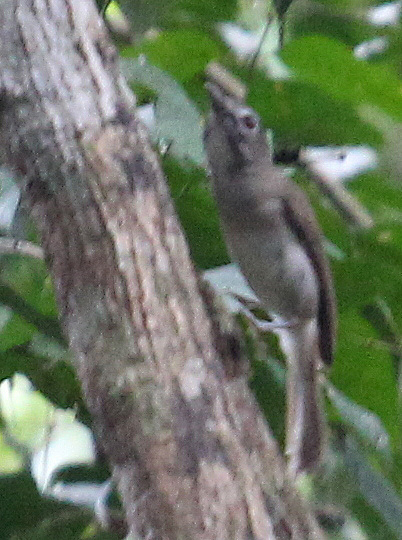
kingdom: Animalia
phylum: Chordata
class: Aves
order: Passeriformes
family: Pellorneidae
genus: Malacopteron
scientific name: Malacopteron magnirostre
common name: Moustached babbler
